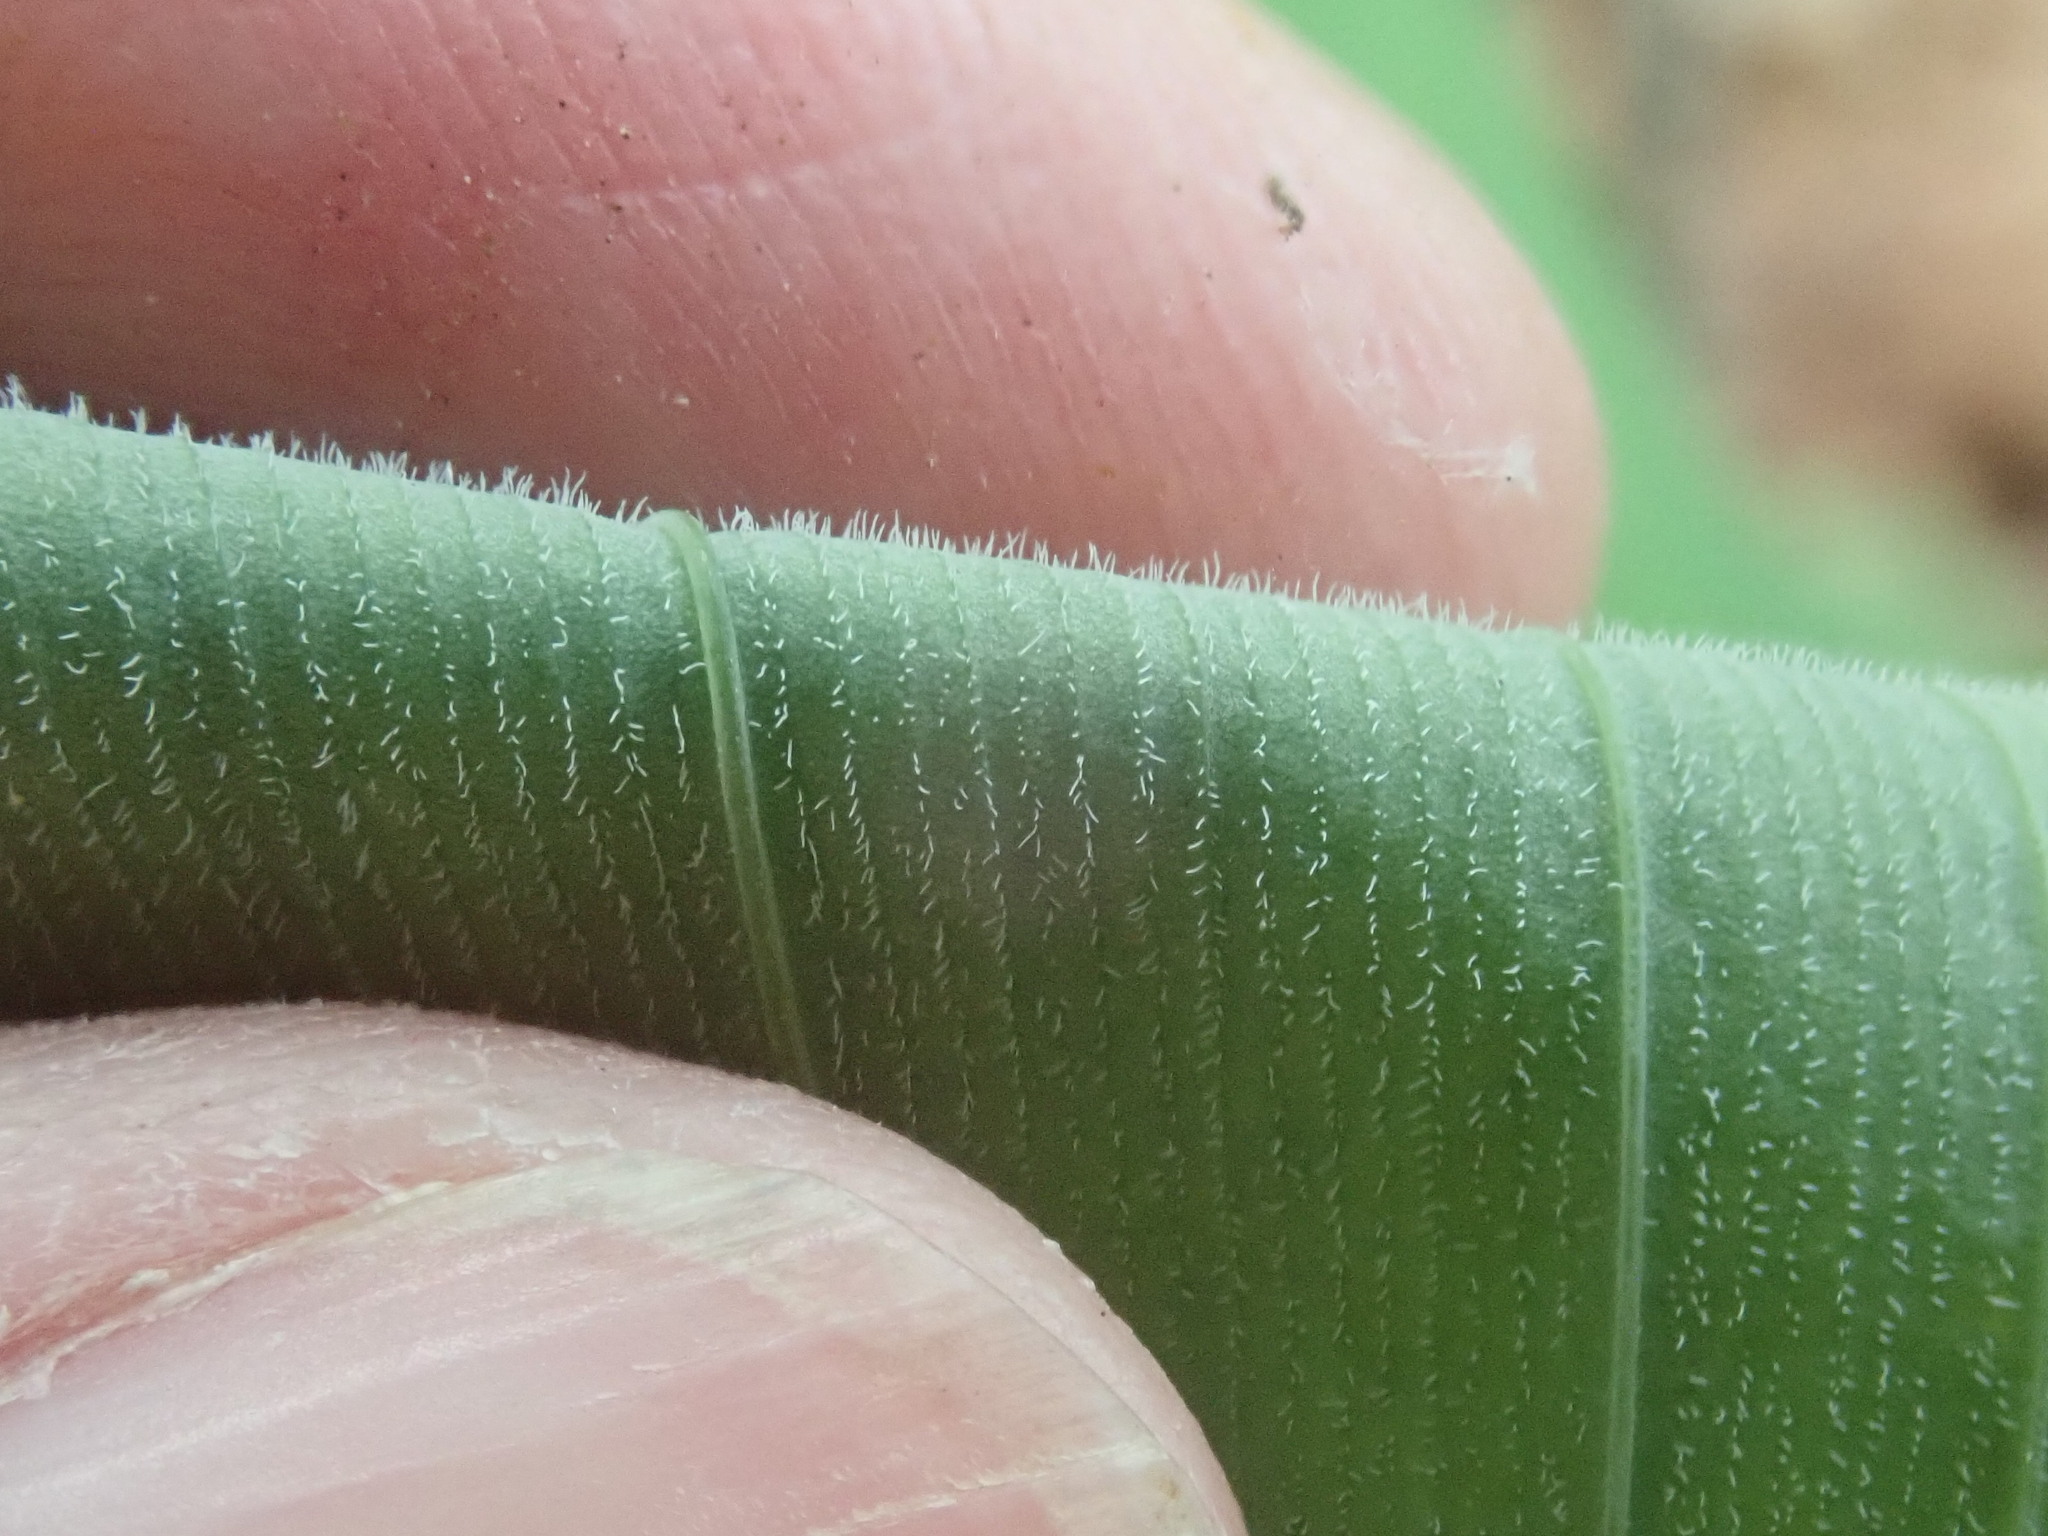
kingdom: Plantae
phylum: Tracheophyta
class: Liliopsida
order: Asparagales
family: Asparagaceae
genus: Polygonatum
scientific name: Polygonatum pubescens
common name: Downy solomon's seal
